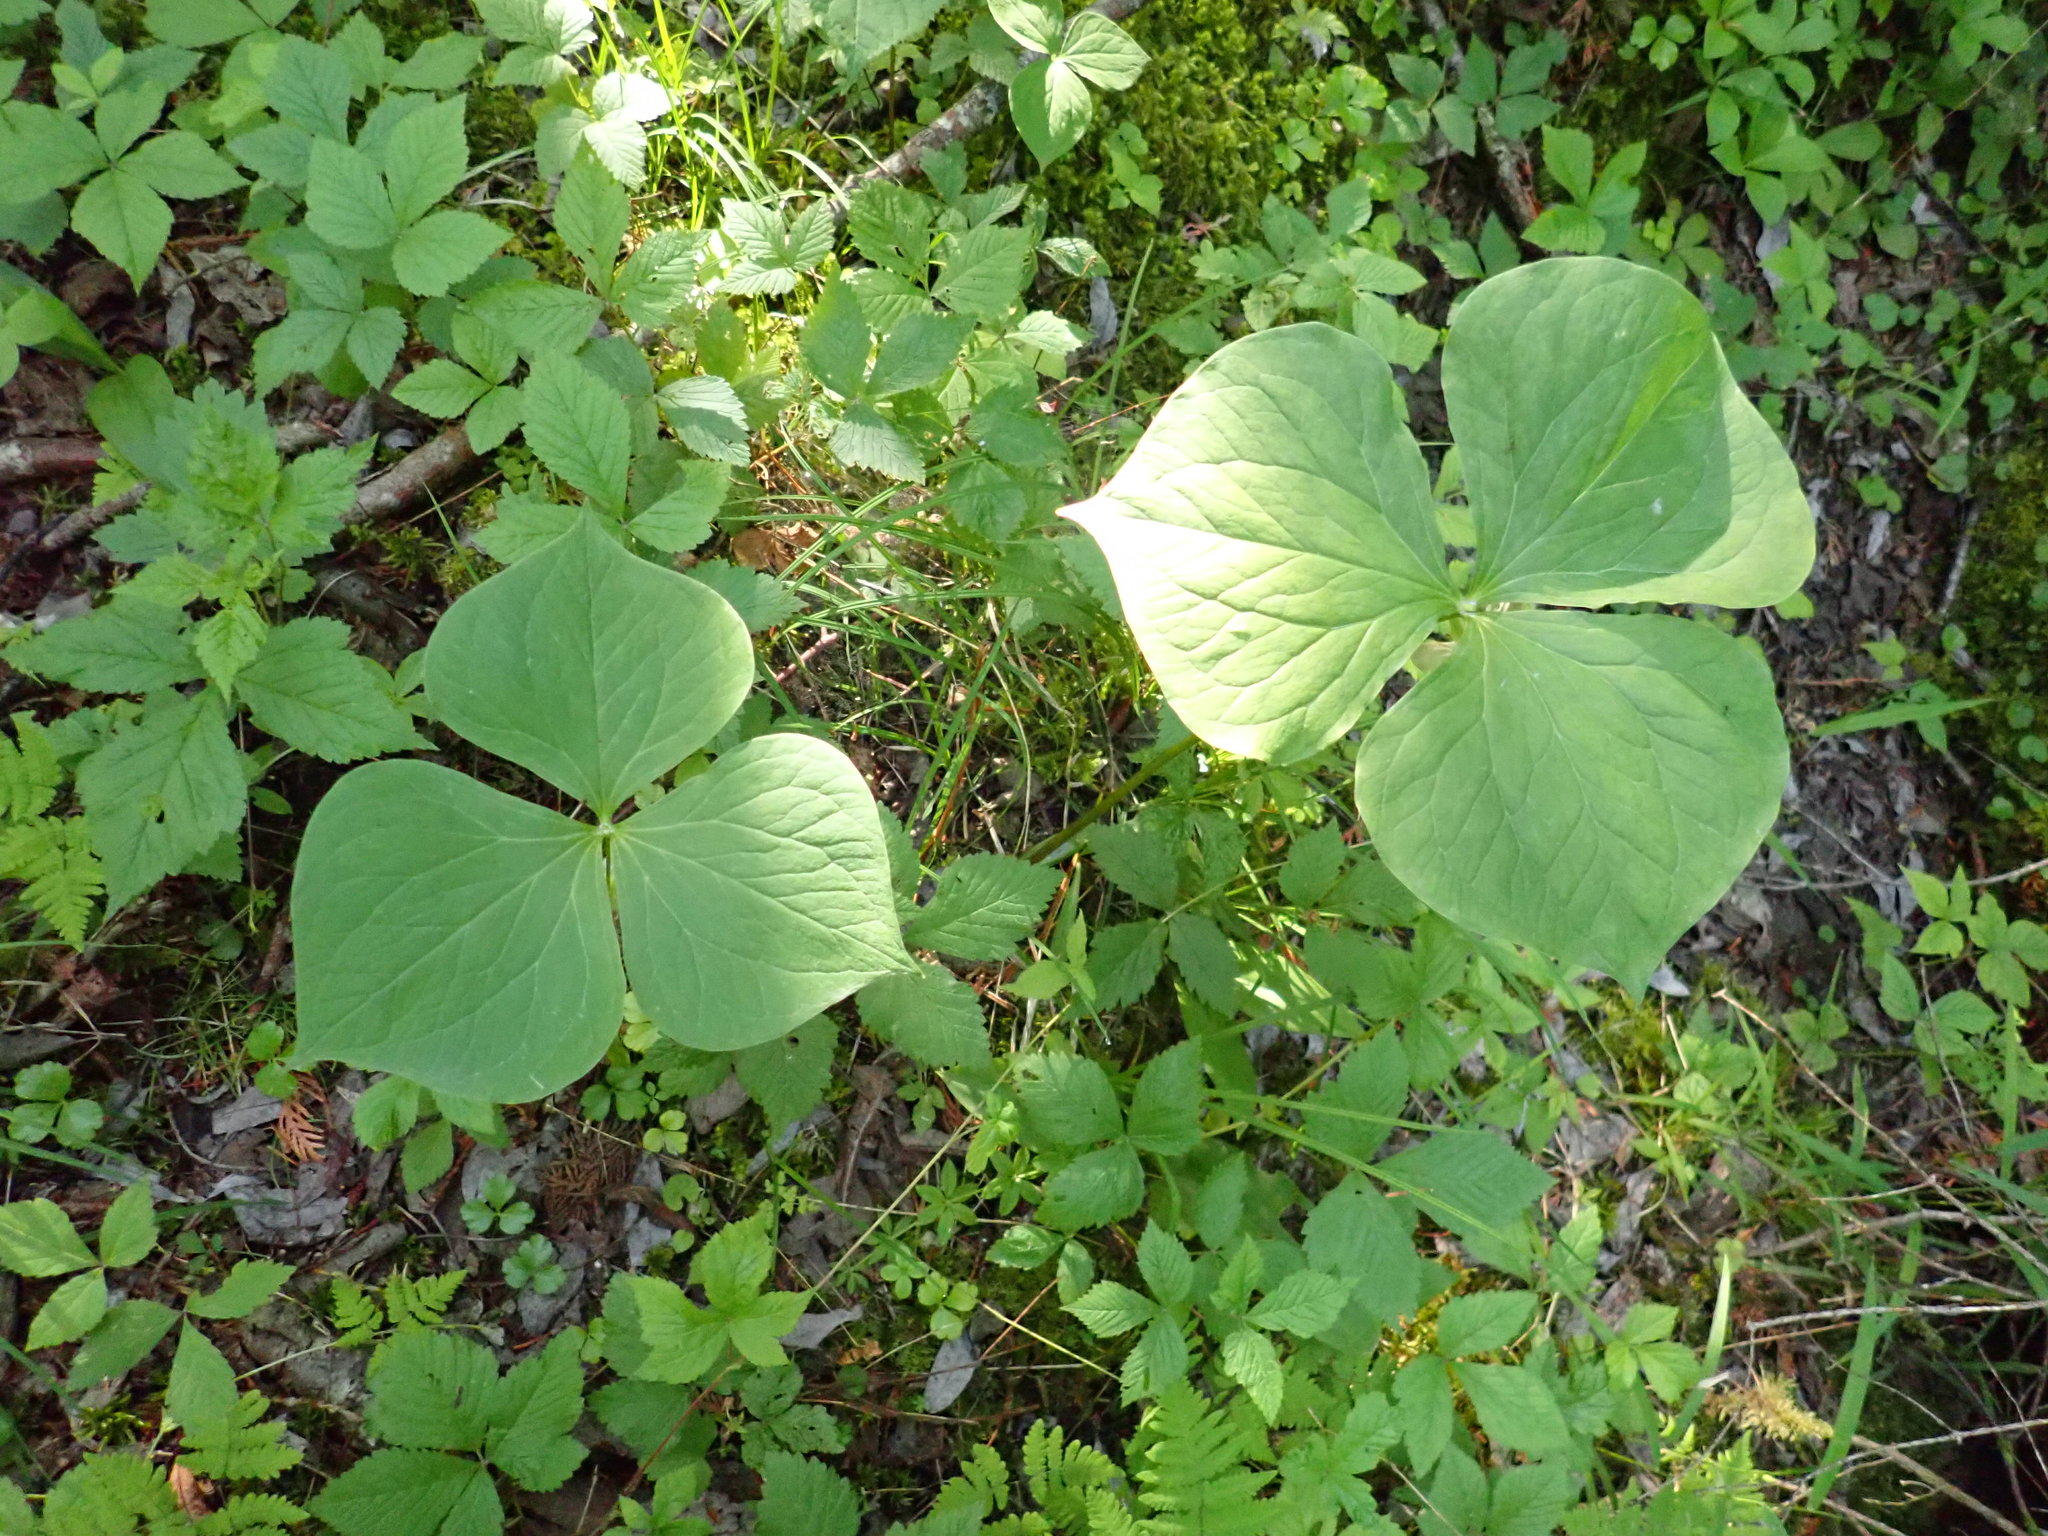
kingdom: Plantae
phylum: Tracheophyta
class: Liliopsida
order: Liliales
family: Melanthiaceae
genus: Trillium
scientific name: Trillium cernuum
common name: Nodding trillium
